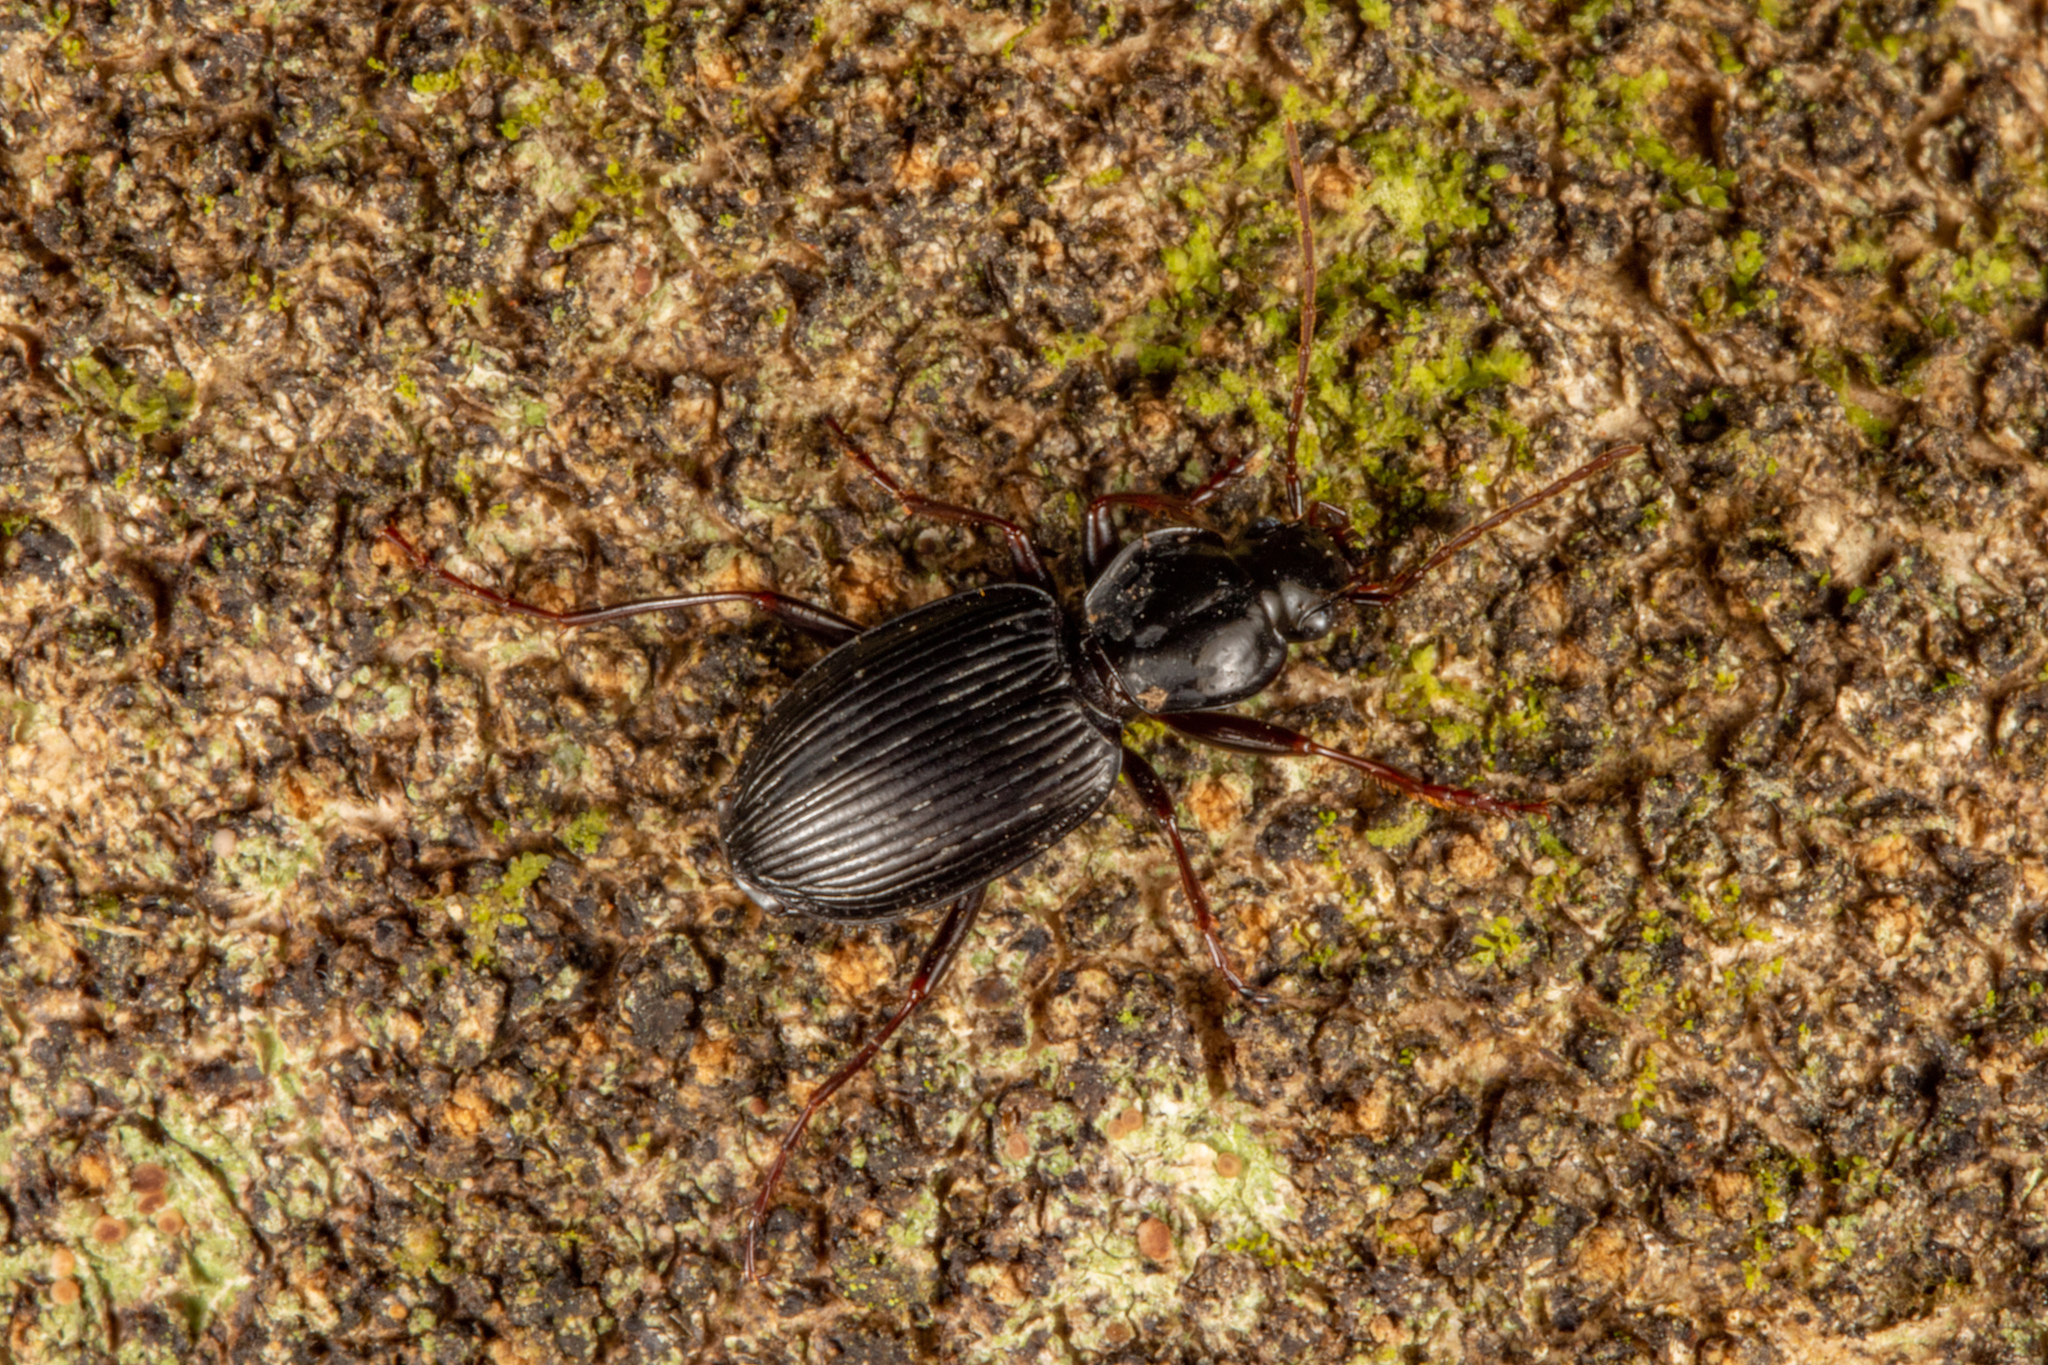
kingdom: Animalia
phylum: Arthropoda
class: Insecta
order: Coleoptera
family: Carabidae
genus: Ctenognathus
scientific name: Ctenognathus novaezelandiae
